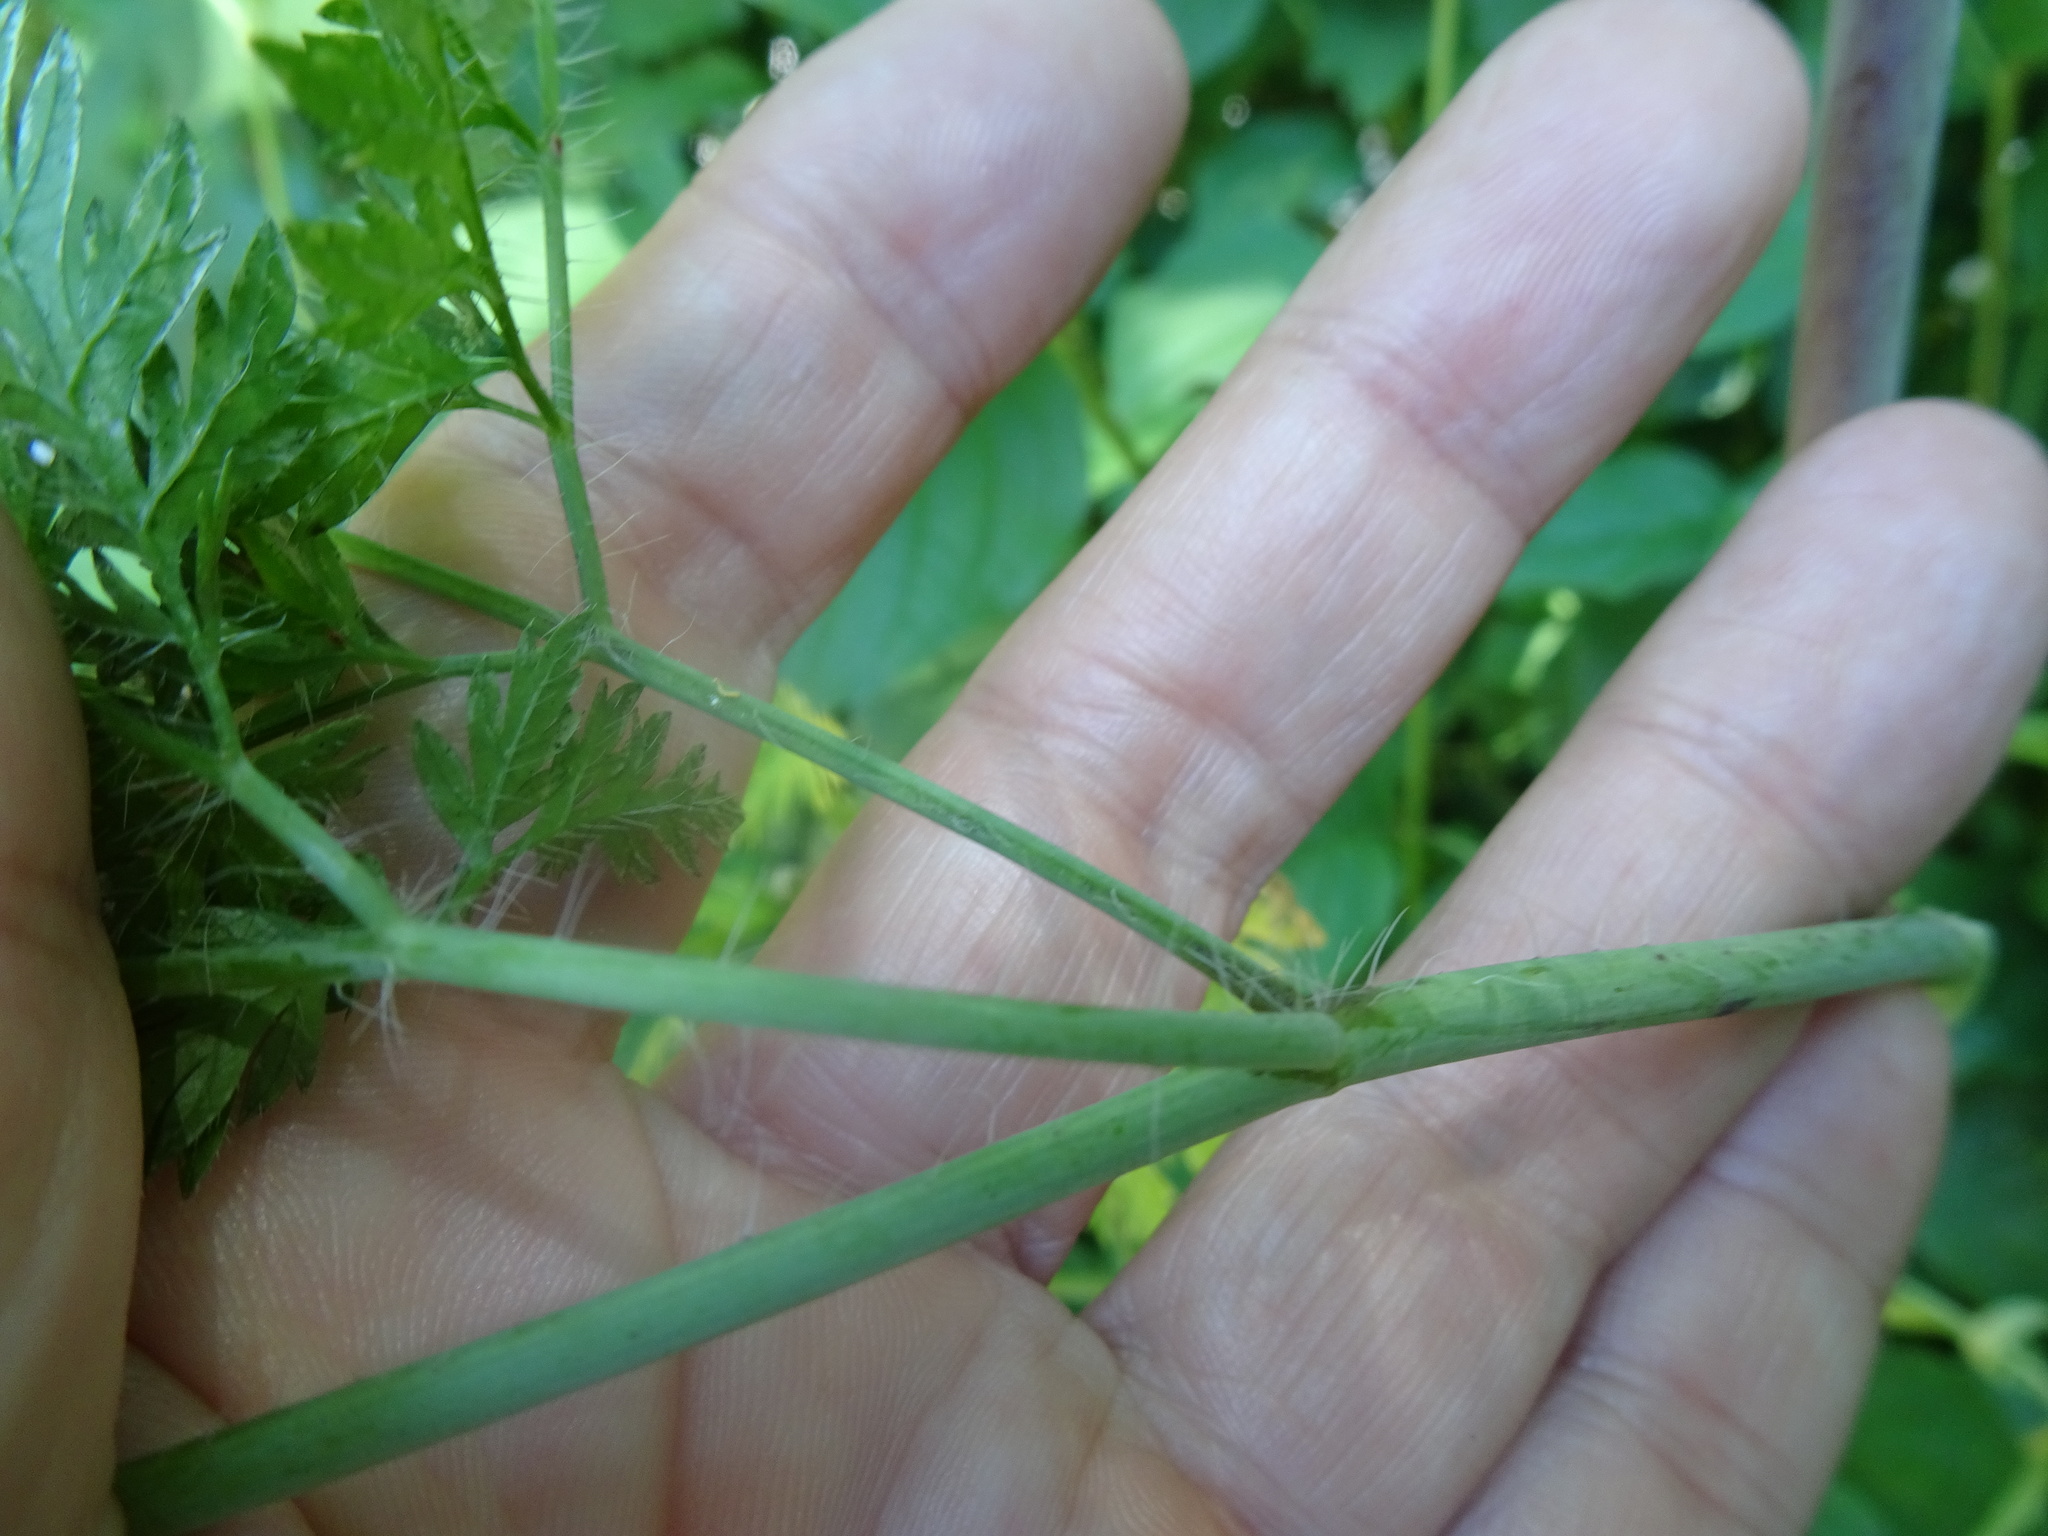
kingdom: Plantae
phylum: Tracheophyta
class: Magnoliopsida
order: Apiales
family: Apiaceae
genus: Chaerophyllum
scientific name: Chaerophyllum bulbosum
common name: Bulbous chervil
